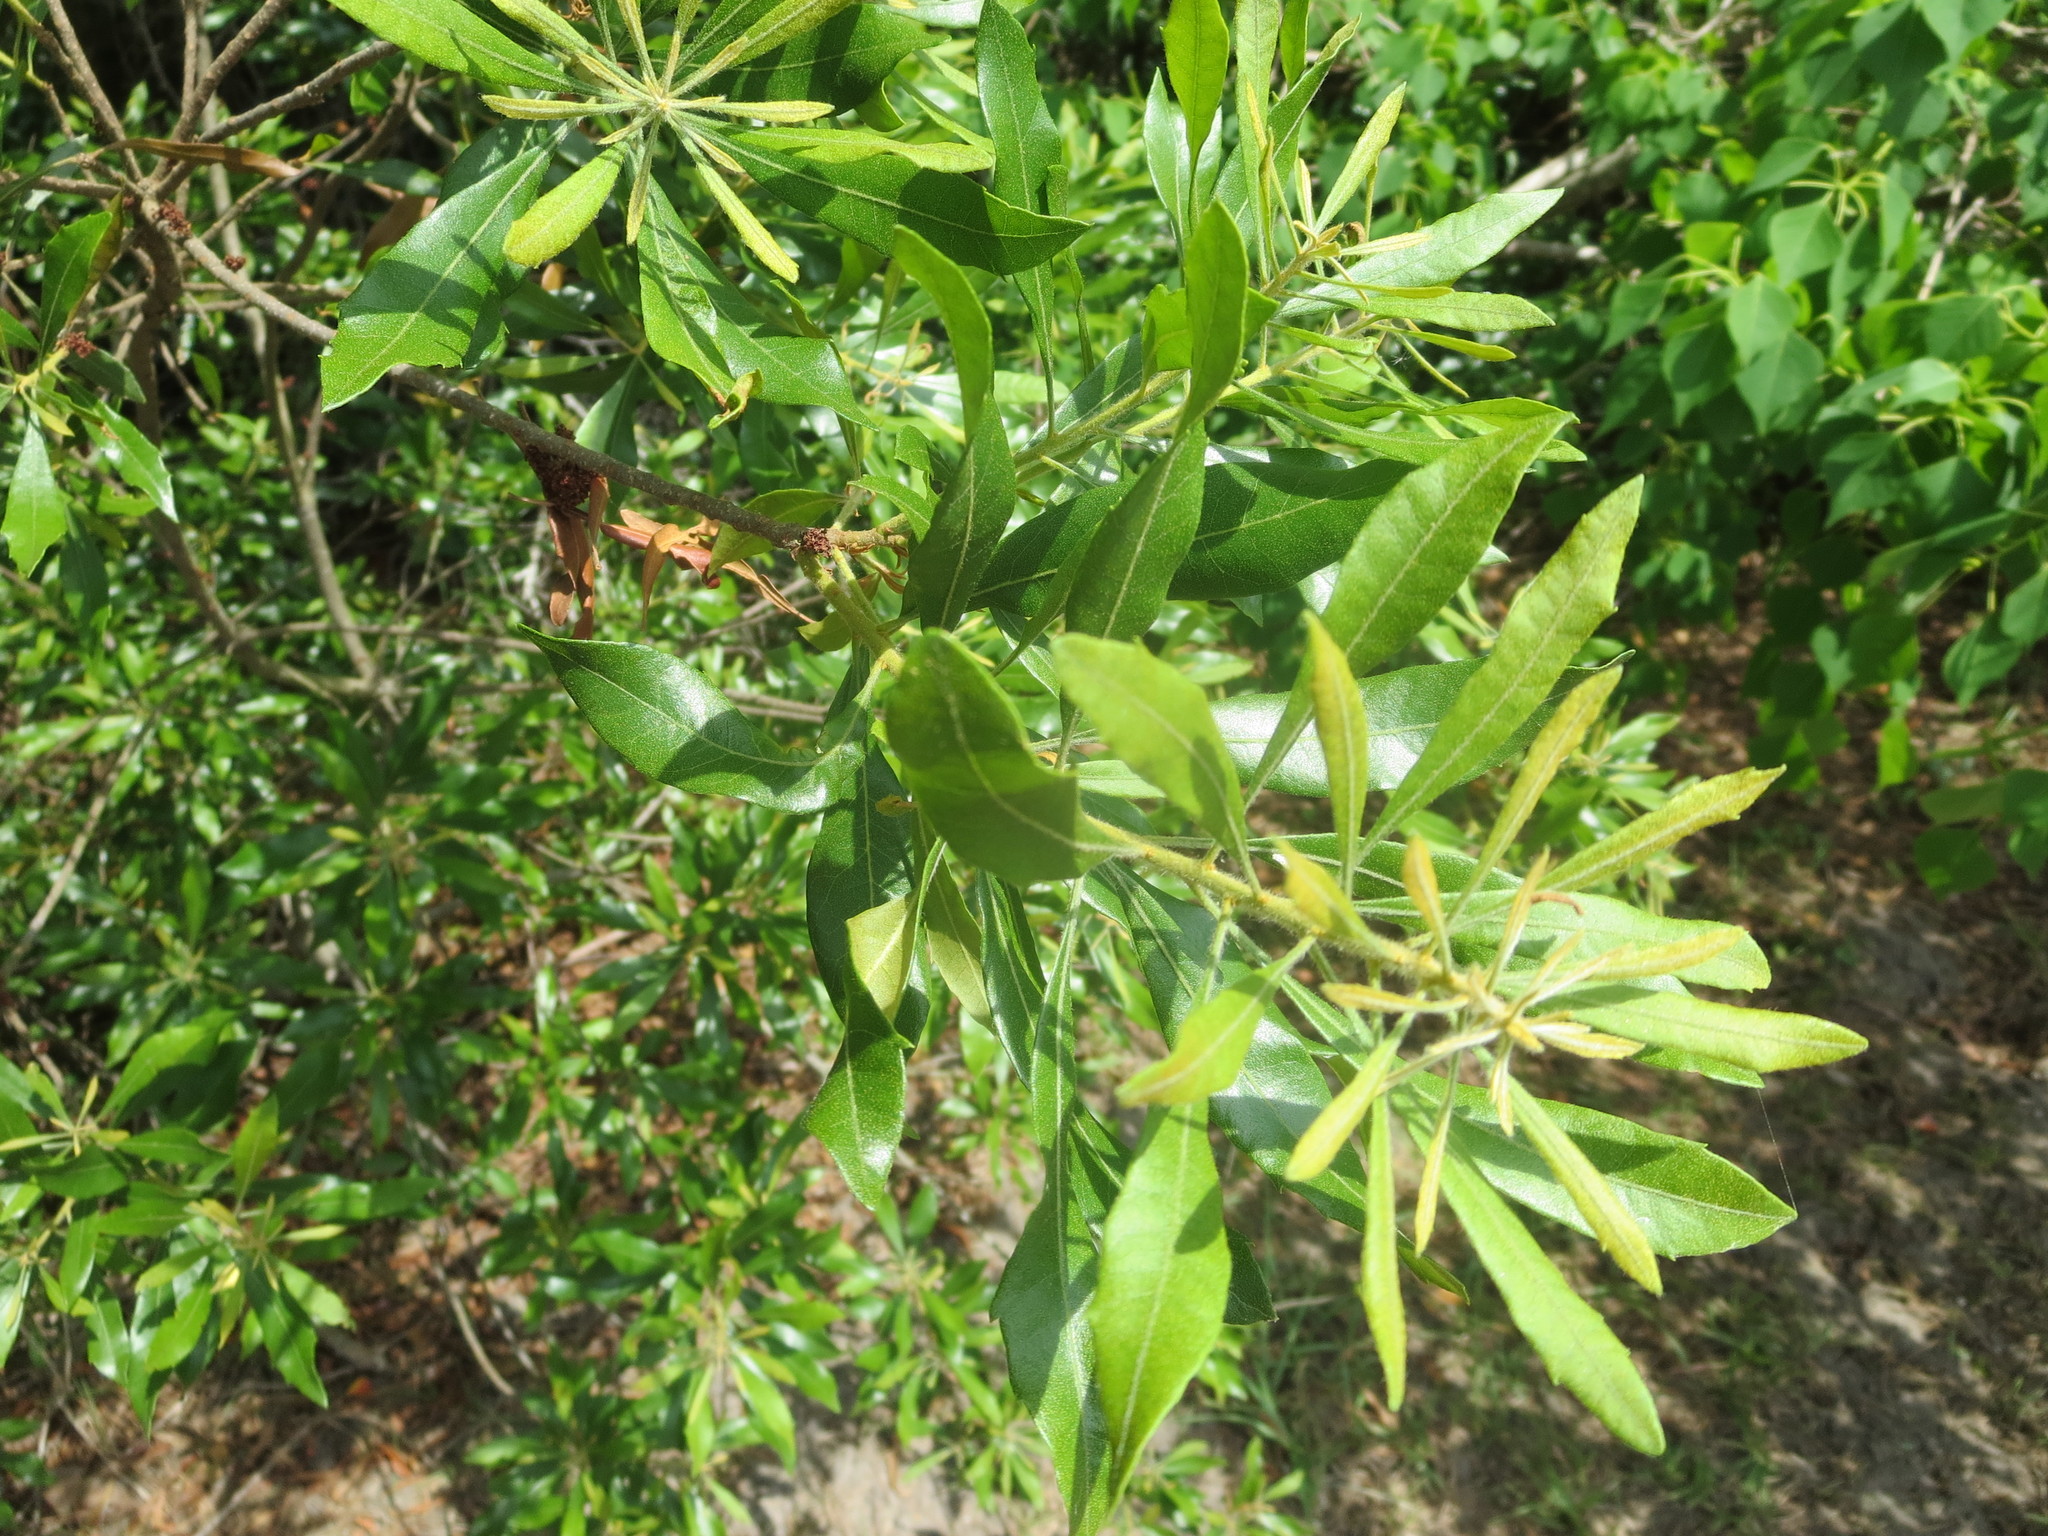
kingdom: Plantae
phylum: Tracheophyta
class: Magnoliopsida
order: Fagales
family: Myricaceae
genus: Morella
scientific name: Morella cerifera
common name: Wax myrtle
